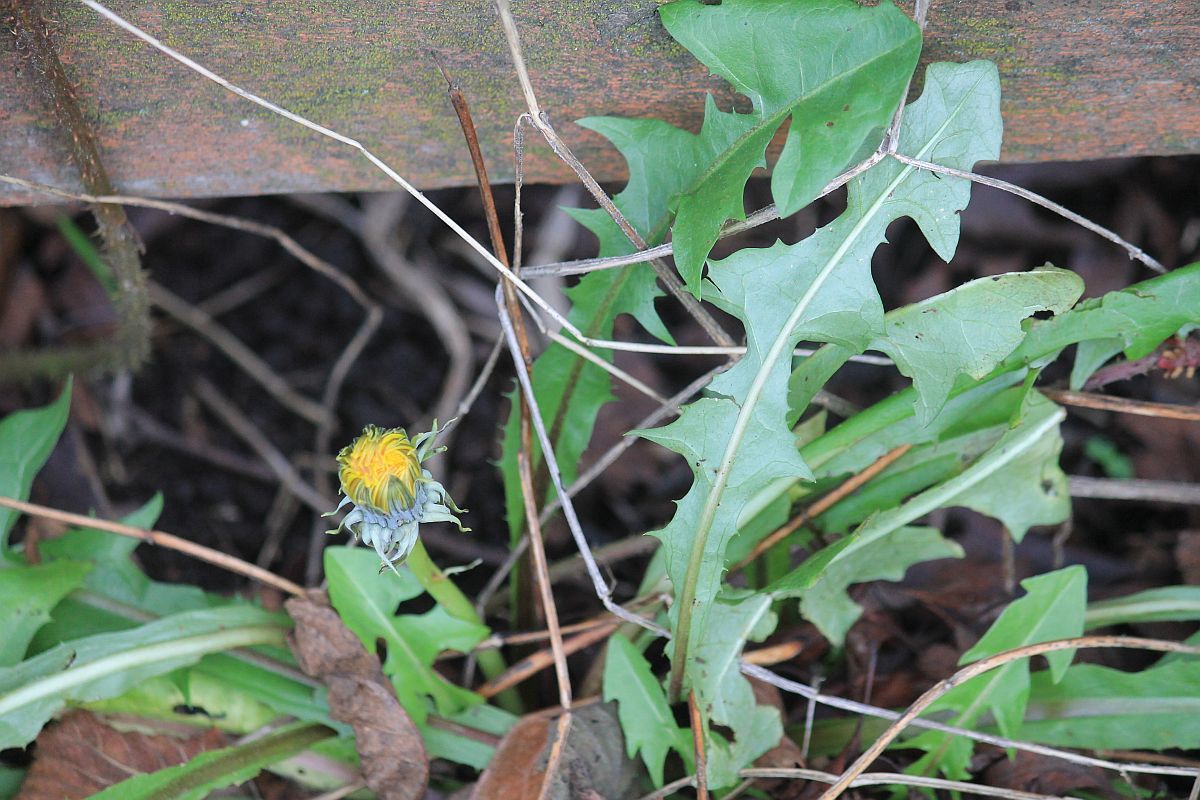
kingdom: Plantae
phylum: Tracheophyta
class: Magnoliopsida
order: Asterales
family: Asteraceae
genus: Taraxacum
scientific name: Taraxacum officinale
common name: Common dandelion
